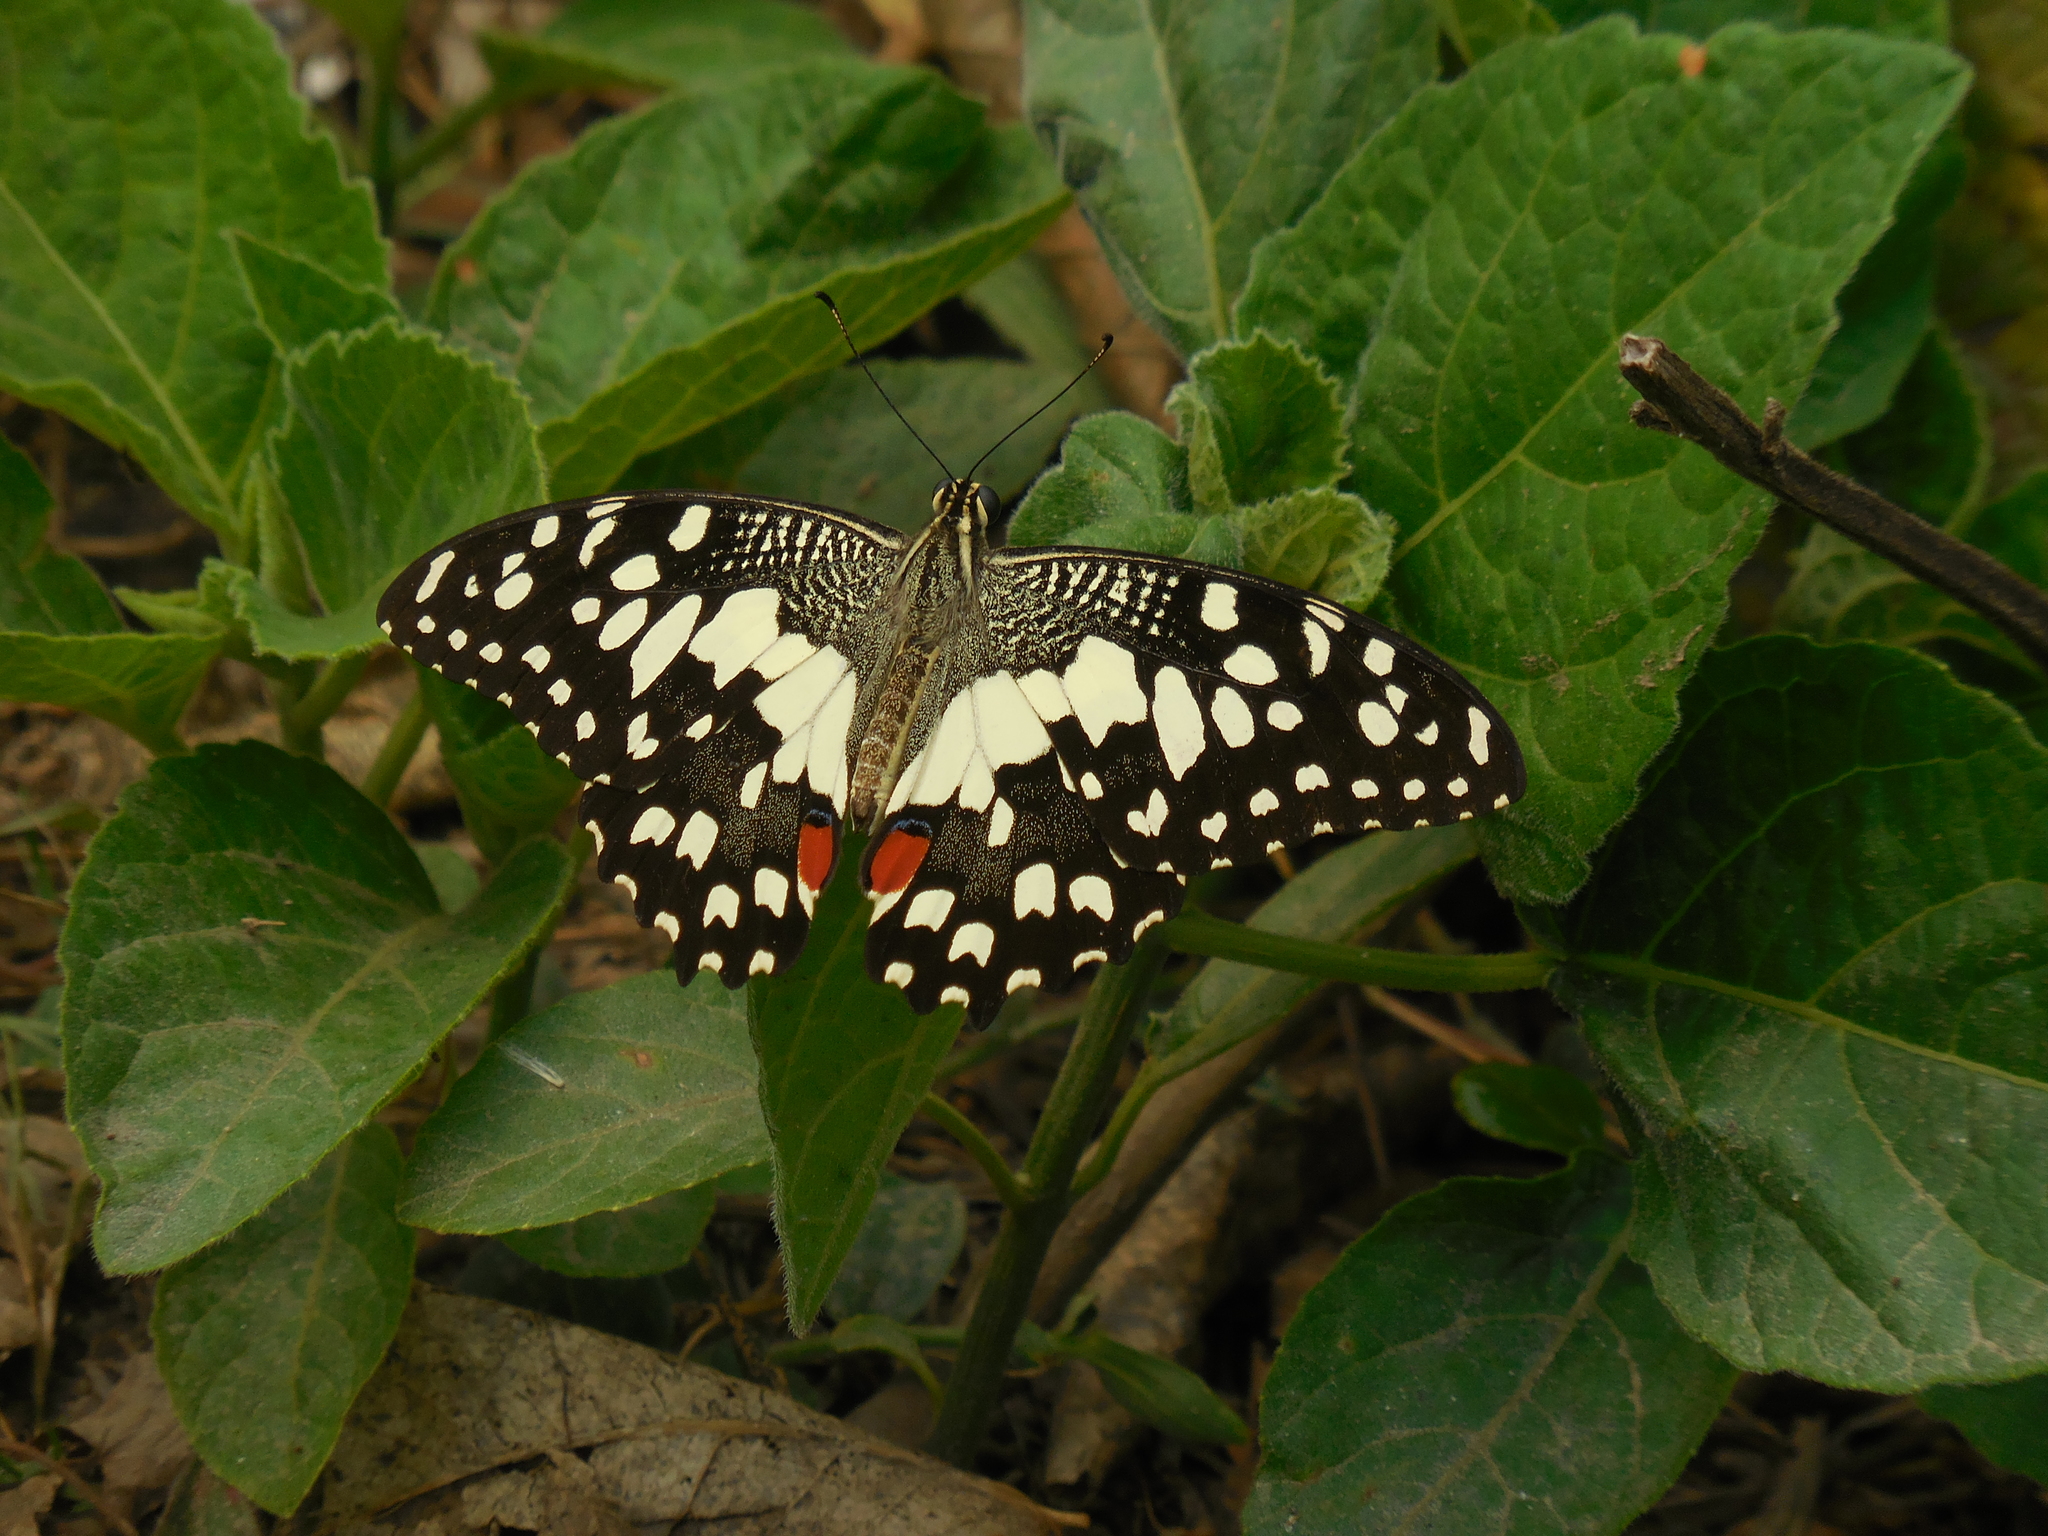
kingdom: Animalia
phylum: Arthropoda
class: Insecta
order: Lepidoptera
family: Papilionidae
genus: Papilio
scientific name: Papilio demoleus
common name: Lime butterfly
